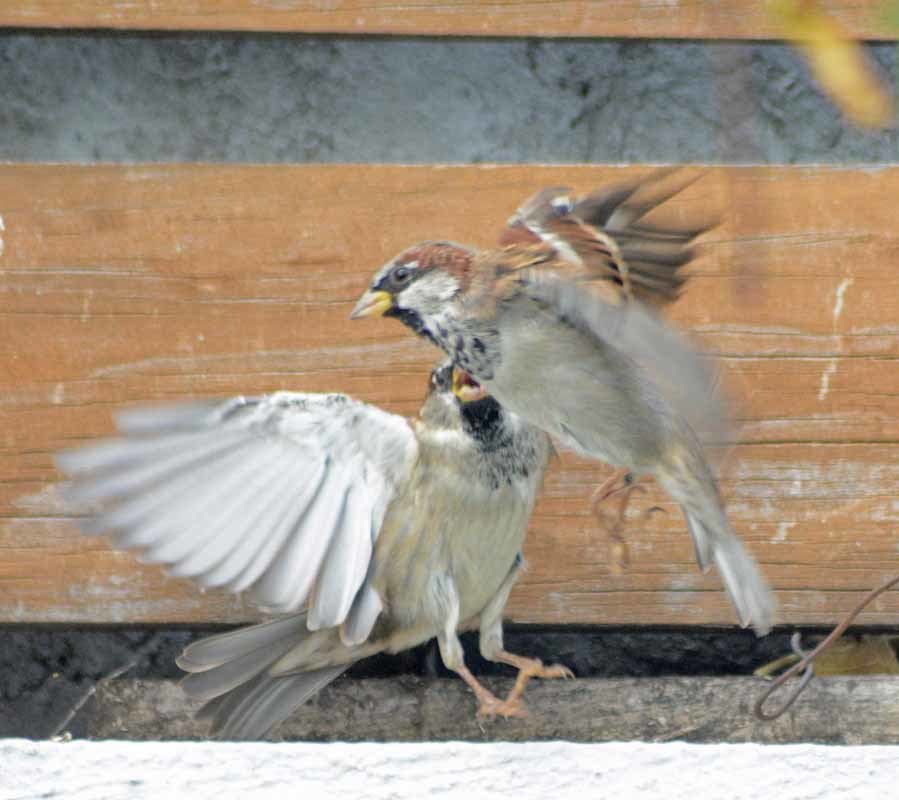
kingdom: Animalia
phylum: Chordata
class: Aves
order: Passeriformes
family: Passeridae
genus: Passer
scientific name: Passer domesticus
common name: House sparrow
